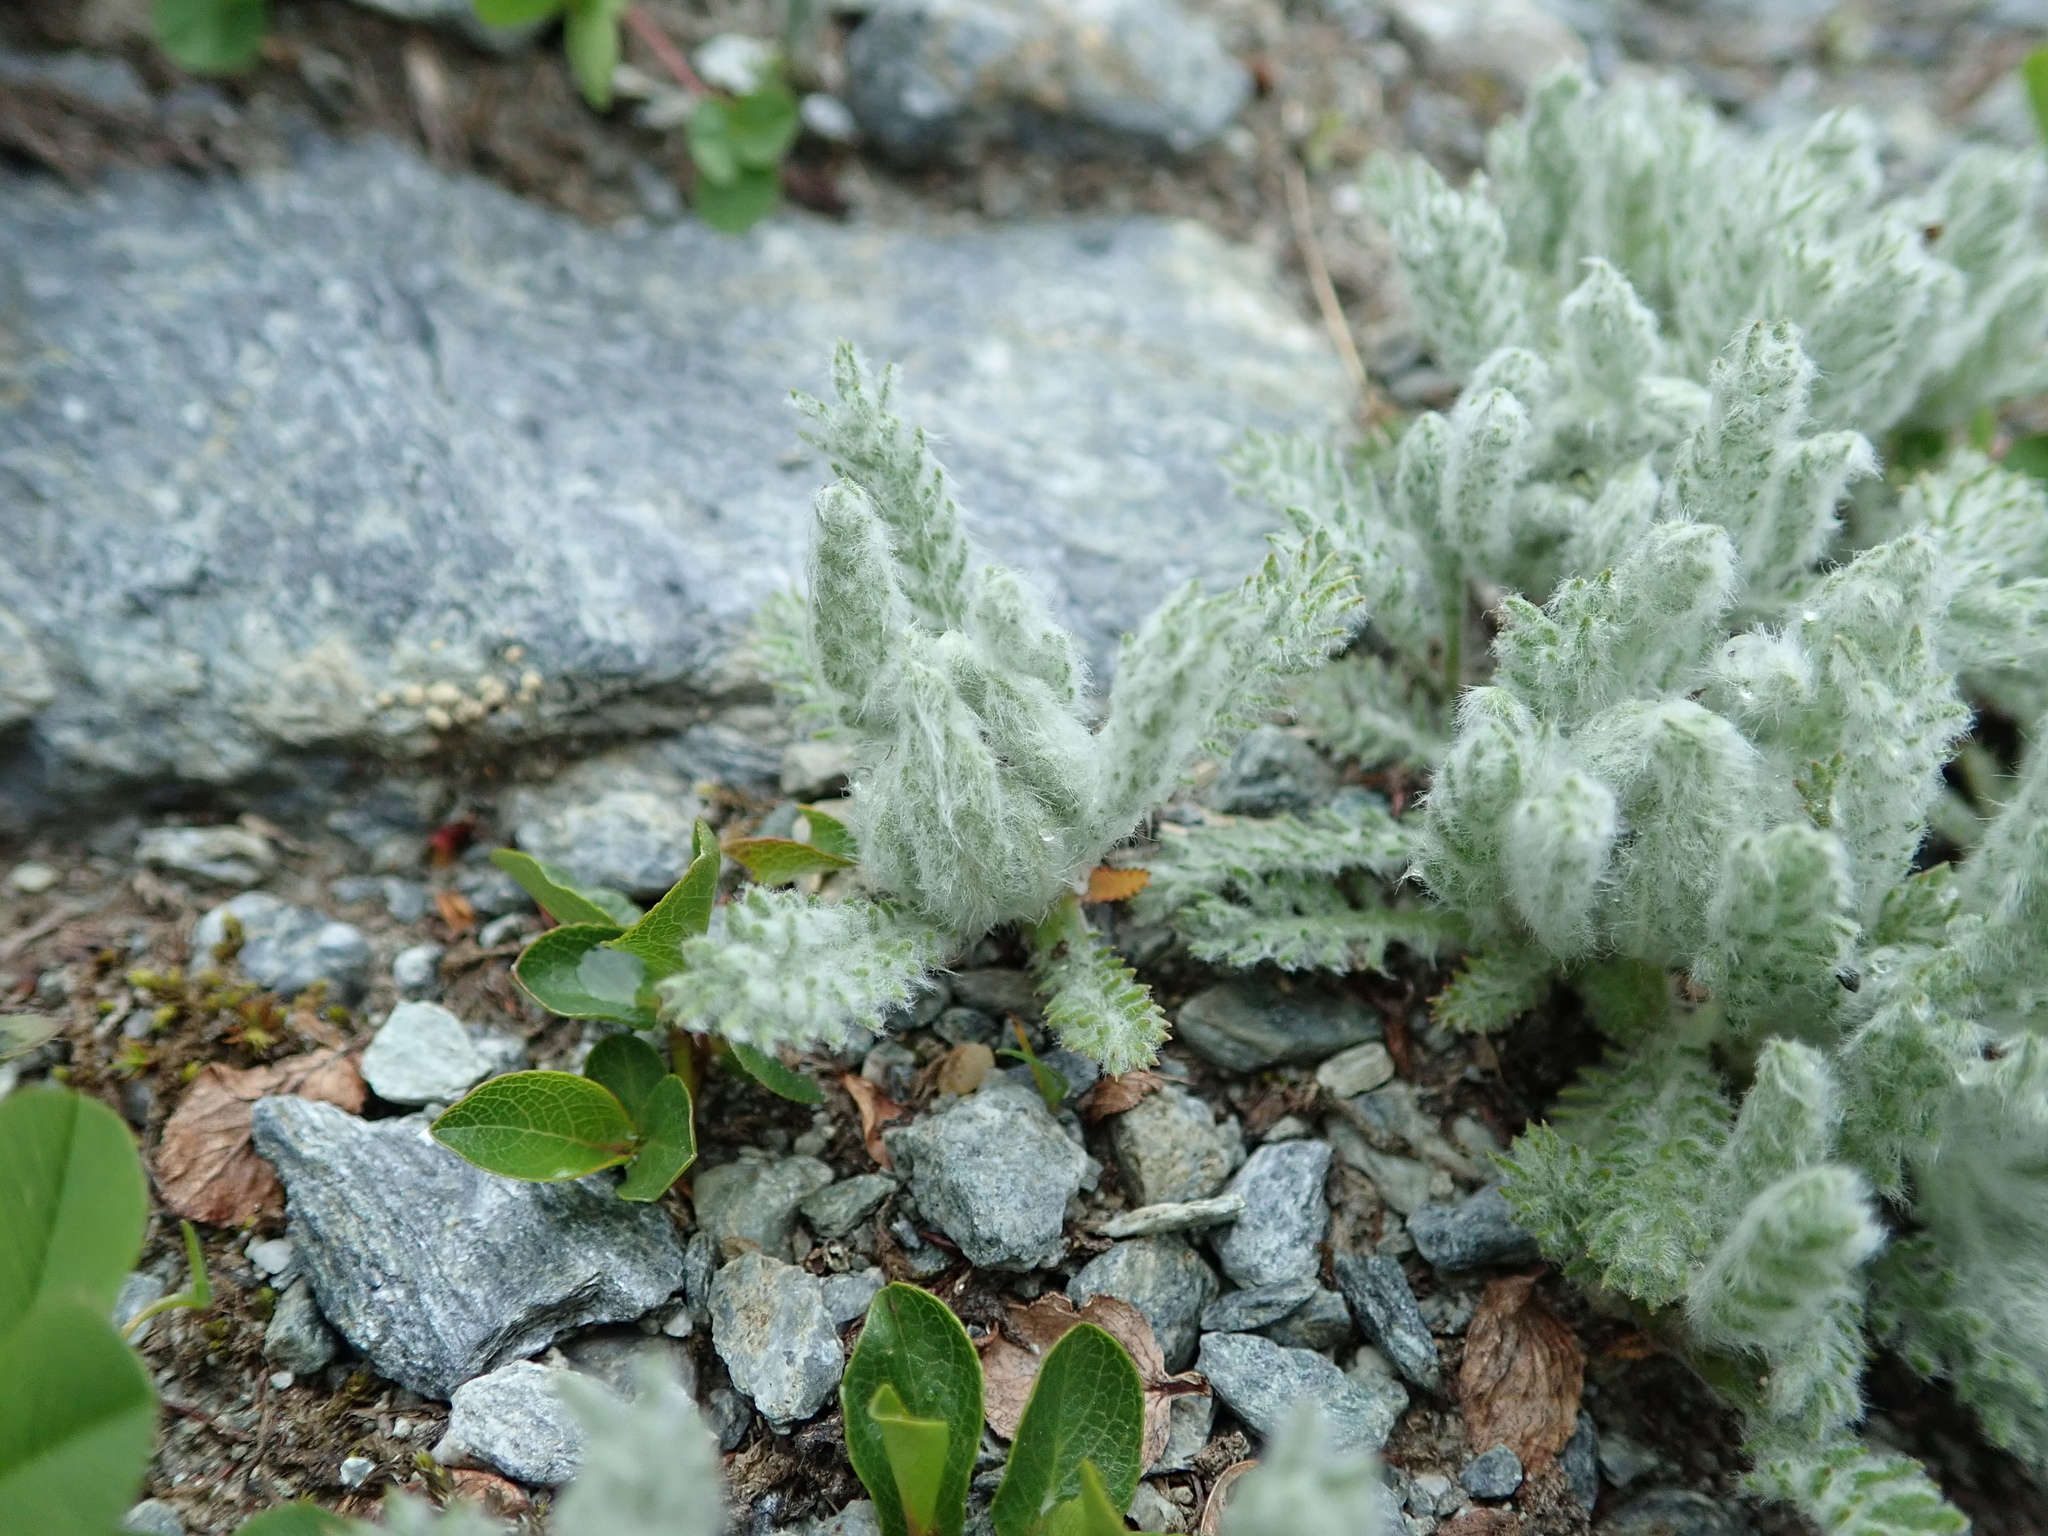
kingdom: Plantae
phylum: Tracheophyta
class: Magnoliopsida
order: Asterales
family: Asteraceae
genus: Achillea
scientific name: Achillea nana
